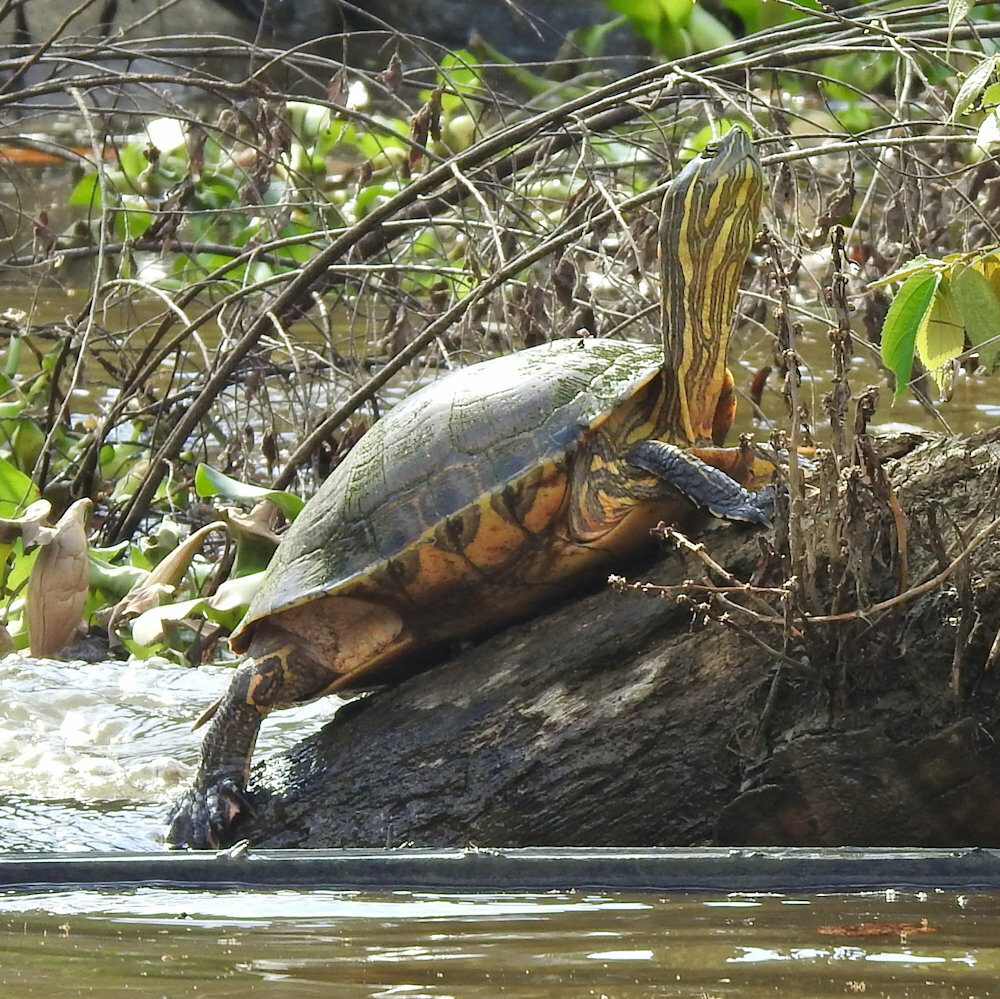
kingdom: Animalia
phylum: Chordata
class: Testudines
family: Emydidae
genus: Trachemys
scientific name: Trachemys venusta
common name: Mesoamerican slider
